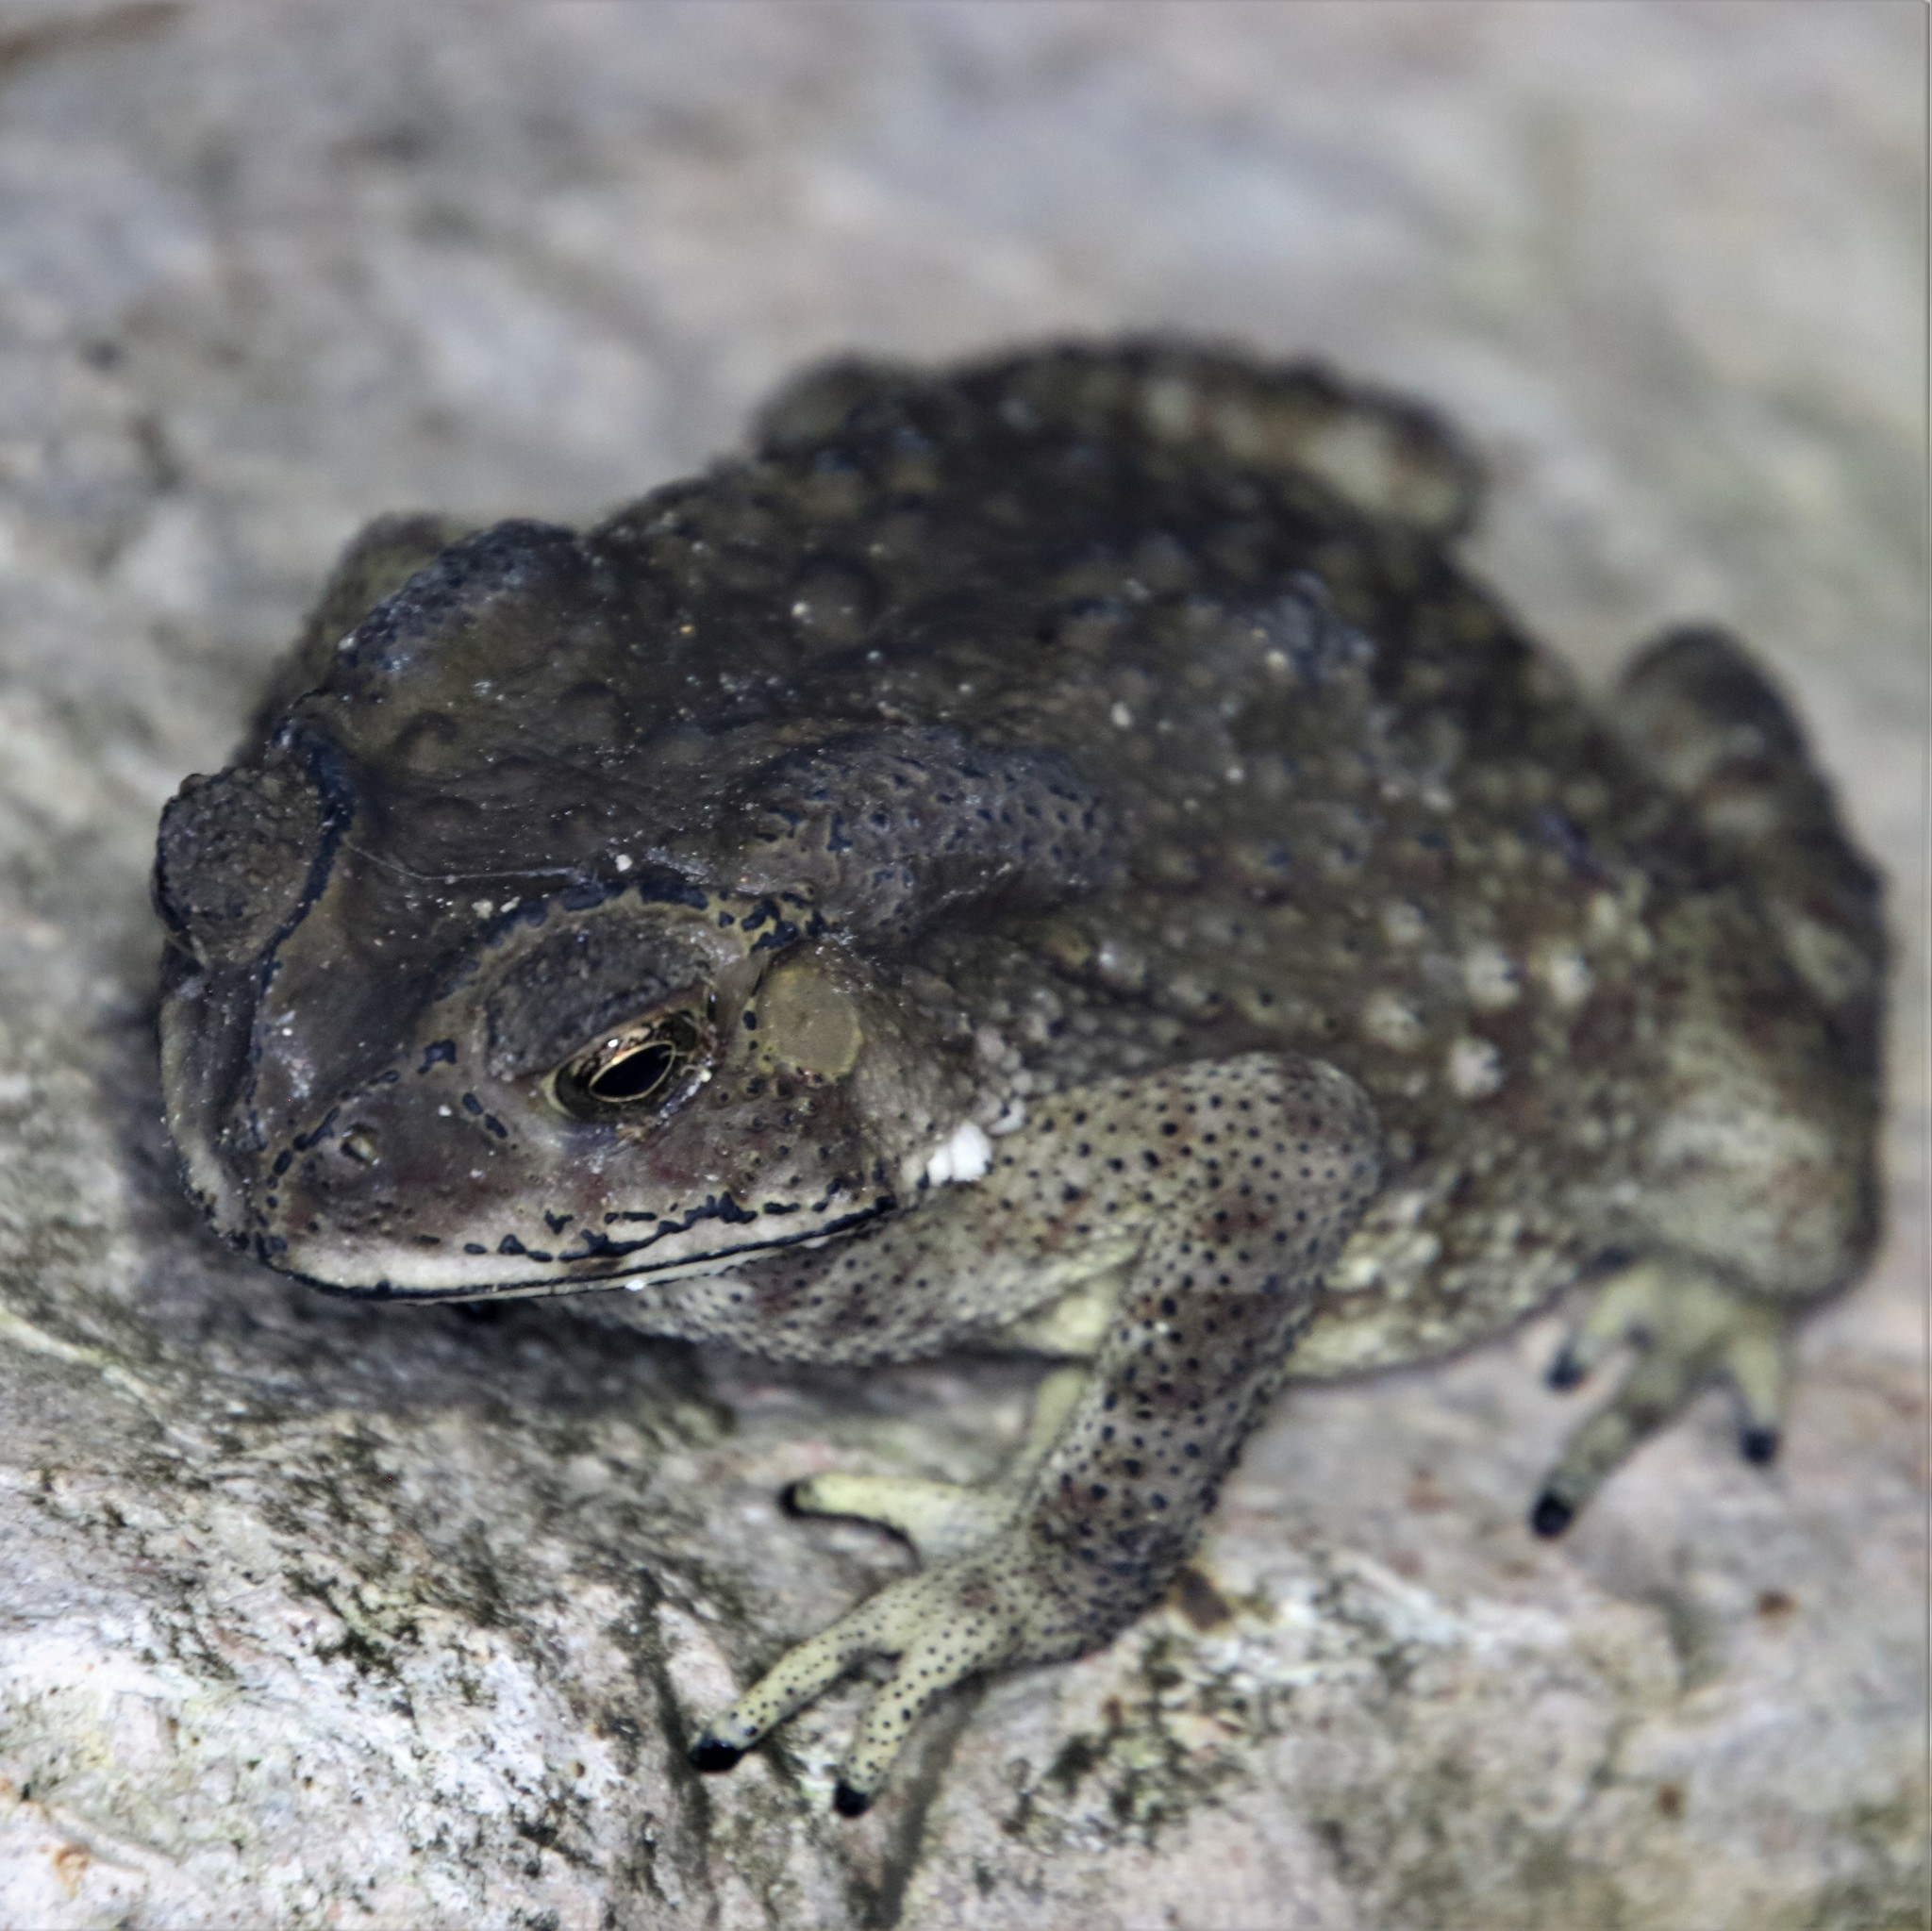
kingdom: Animalia
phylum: Chordata
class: Amphibia
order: Anura
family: Bufonidae
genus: Duttaphrynus
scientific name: Duttaphrynus melanostictus
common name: Common sunda toad
